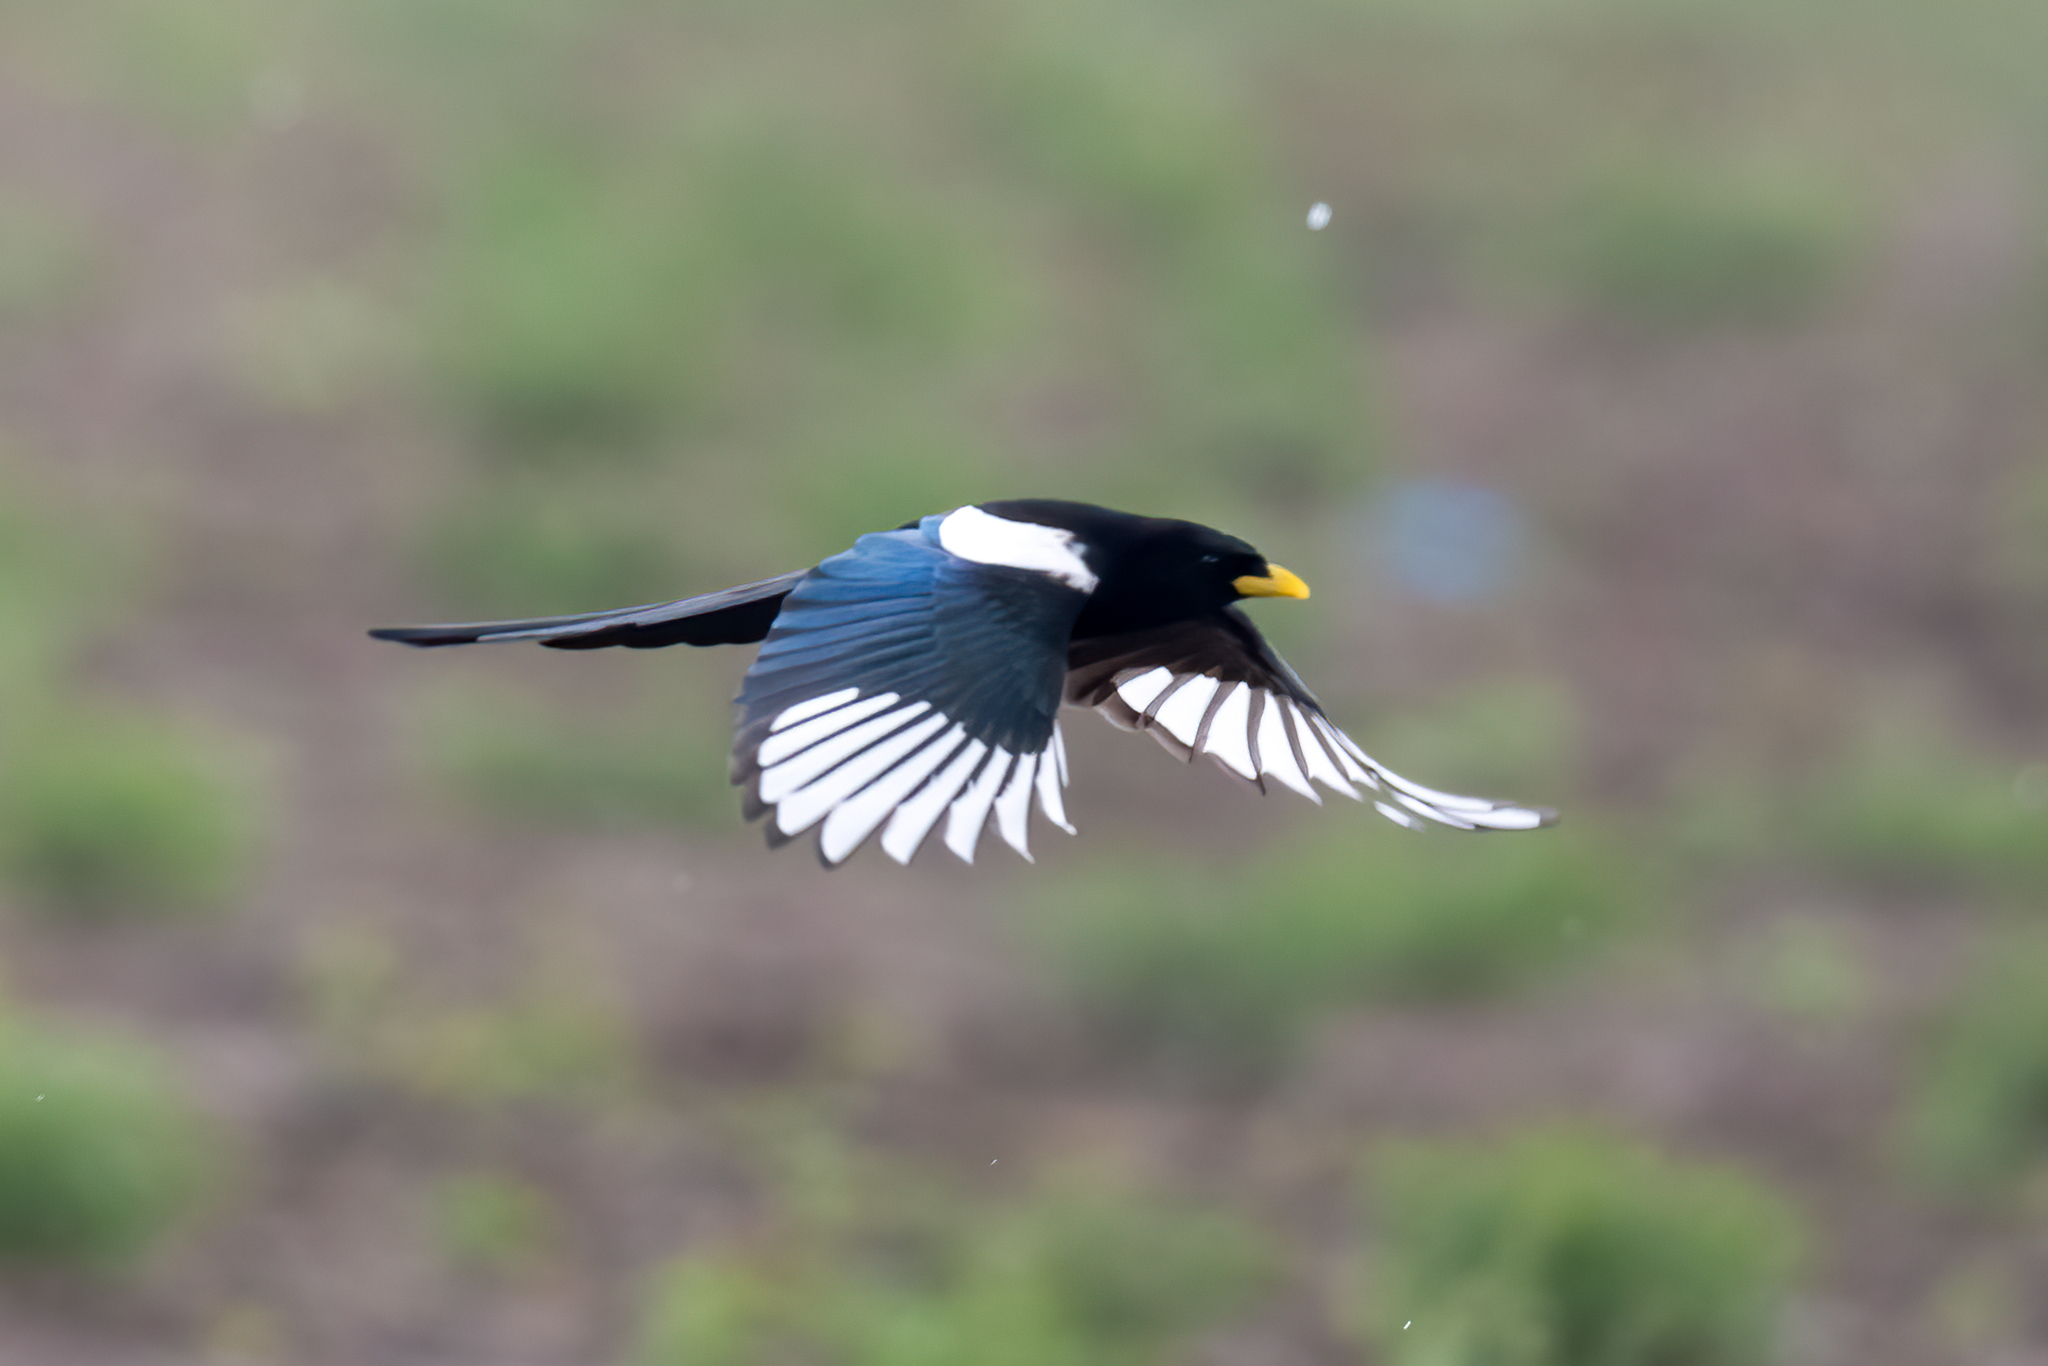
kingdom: Animalia
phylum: Chordata
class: Aves
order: Passeriformes
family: Corvidae
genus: Pica
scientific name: Pica nuttalli
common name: Yellow-billed magpie
